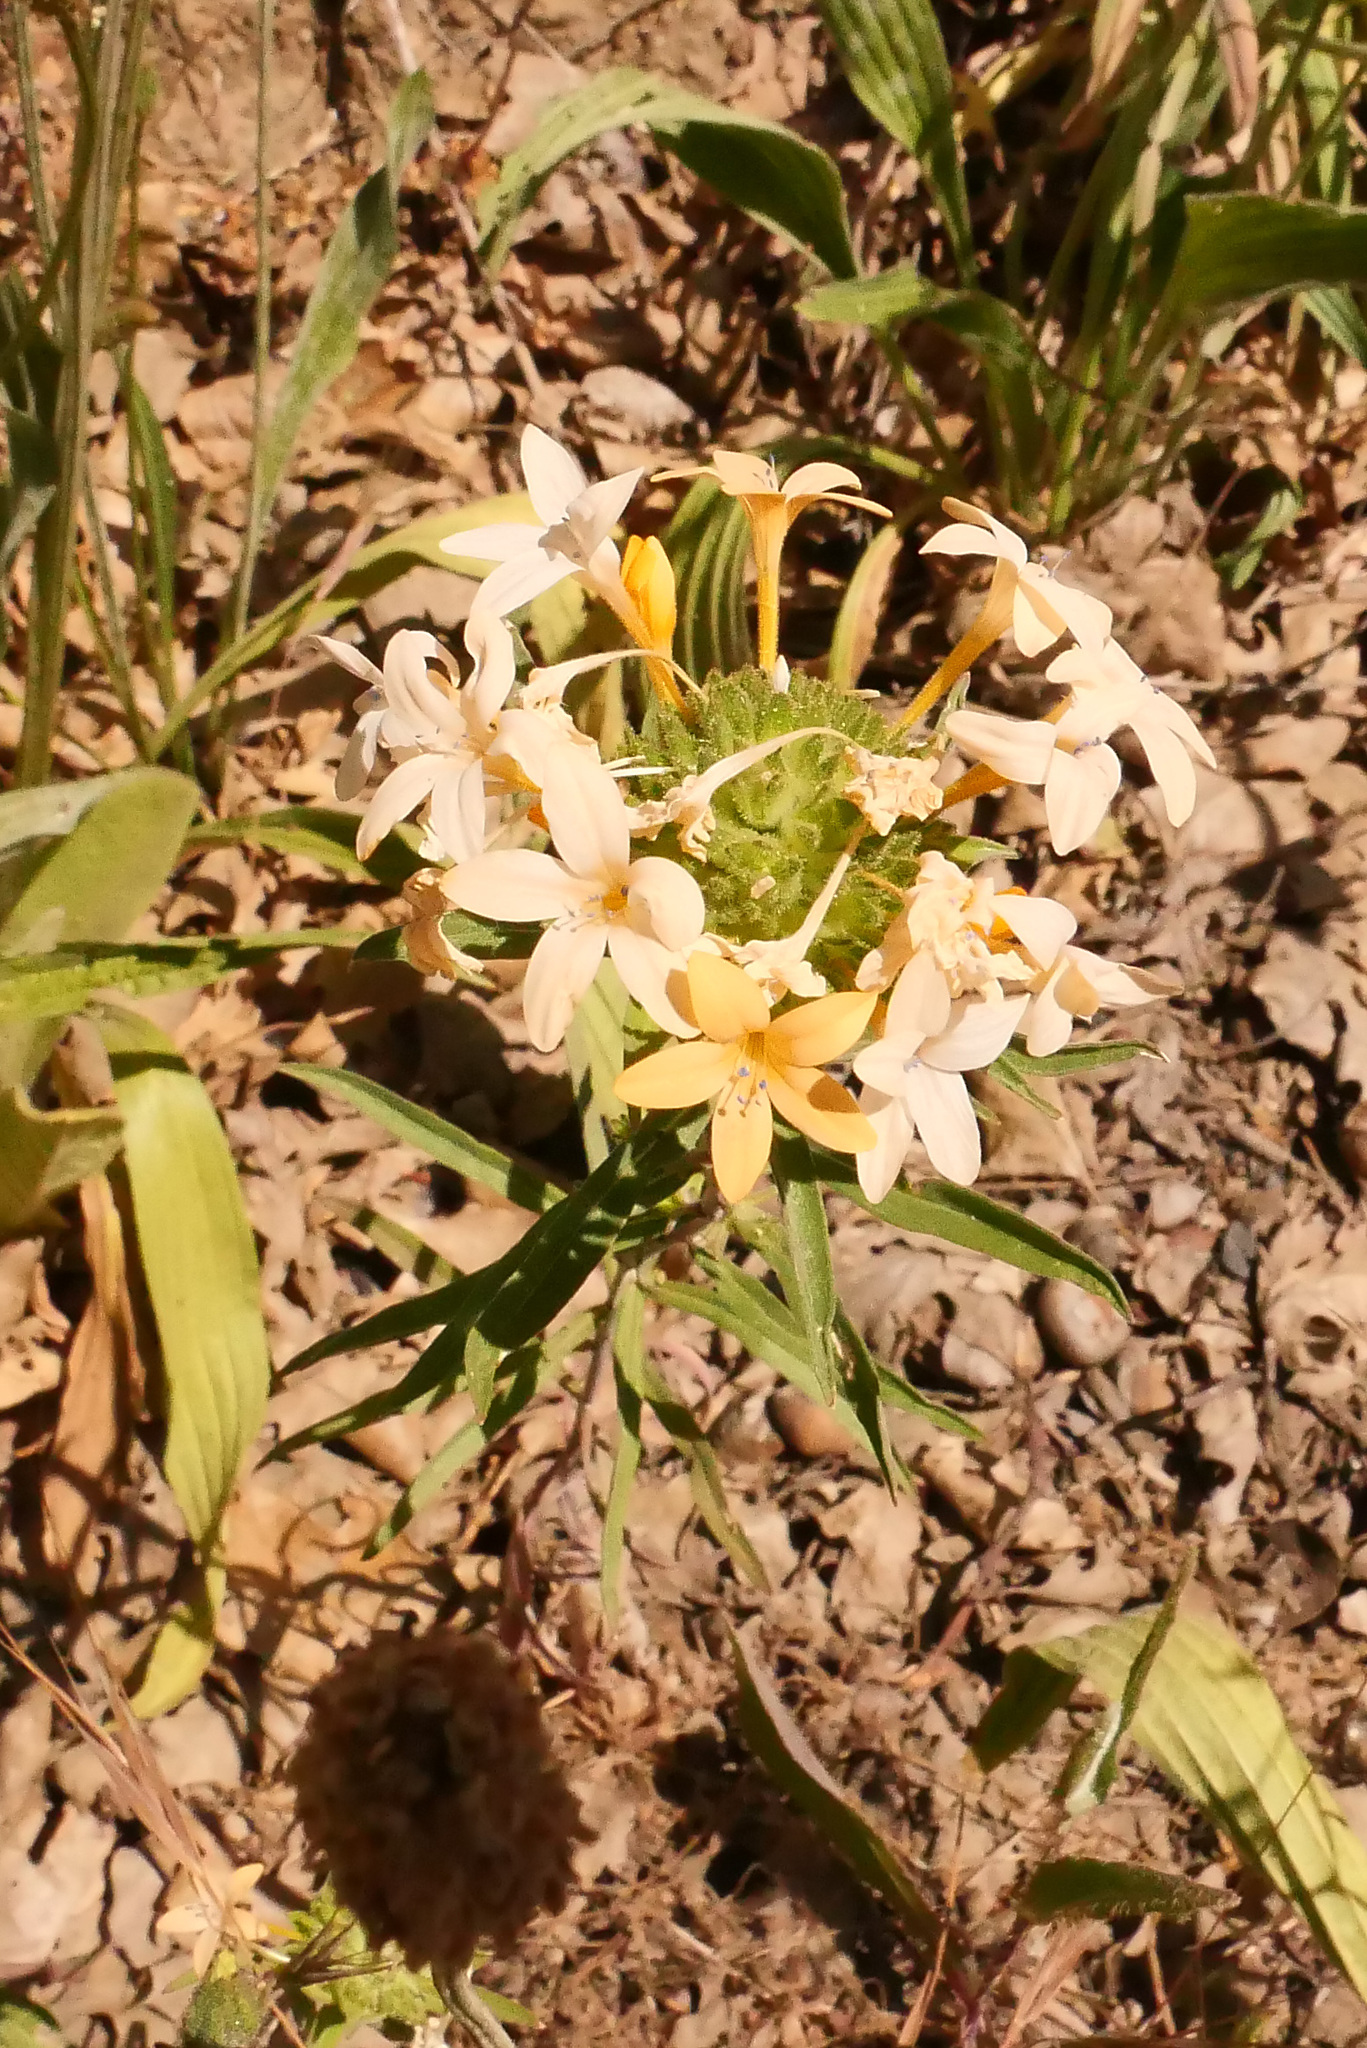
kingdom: Plantae
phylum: Tracheophyta
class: Magnoliopsida
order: Ericales
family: Polemoniaceae
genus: Collomia
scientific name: Collomia grandiflora
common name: California strawflower
